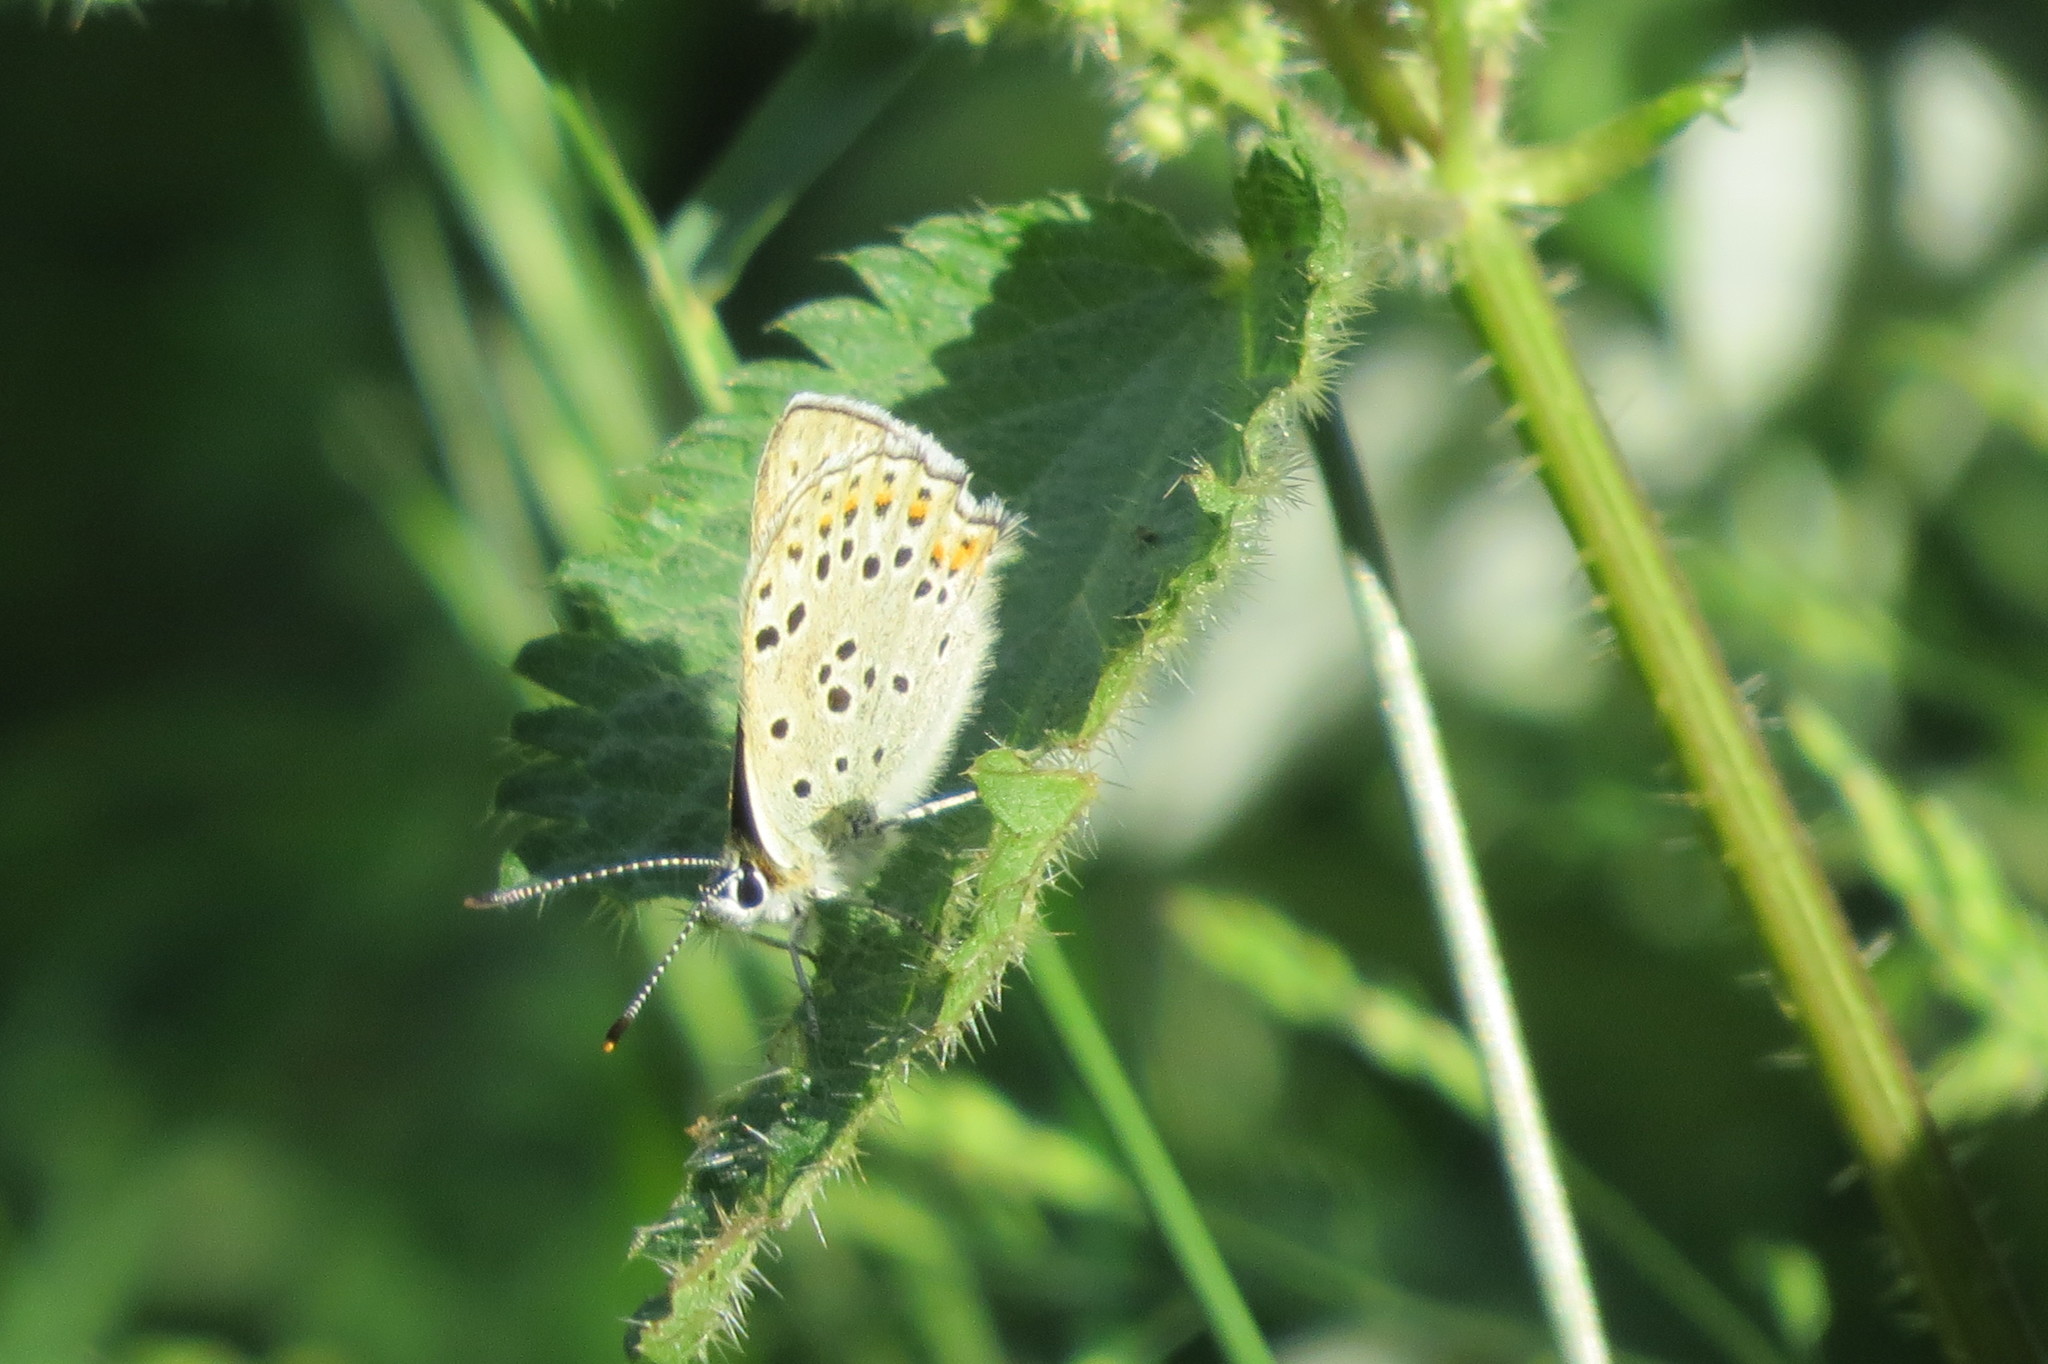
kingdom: Animalia
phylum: Arthropoda
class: Insecta
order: Lepidoptera
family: Lycaenidae
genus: Loweia
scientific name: Loweia tityrus
